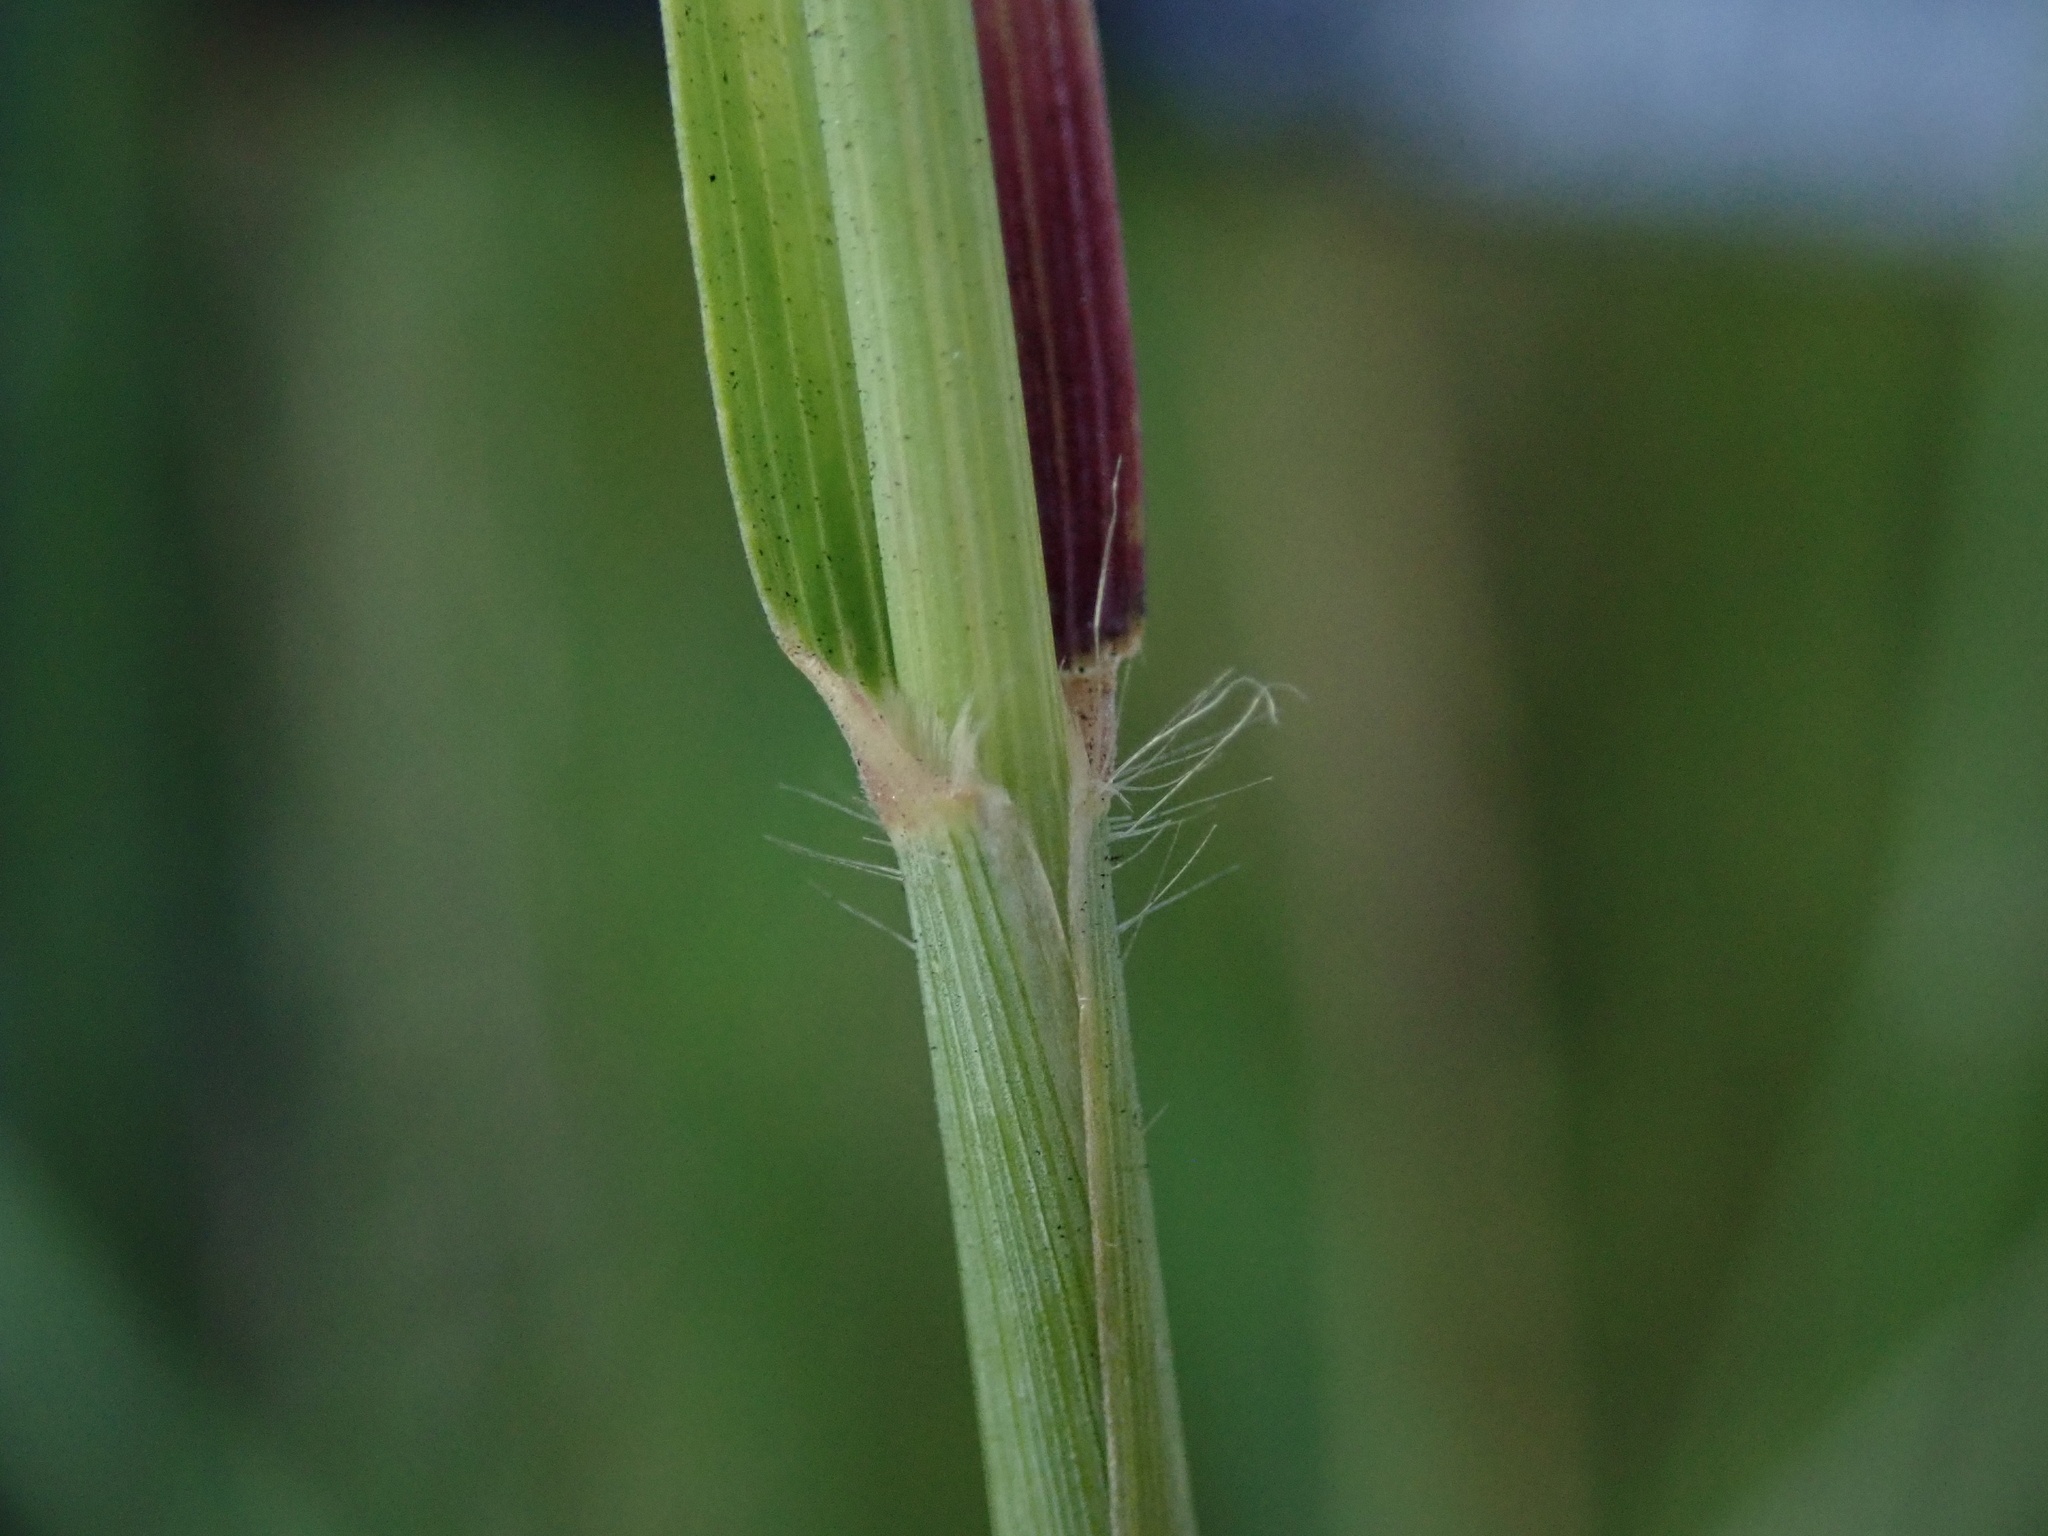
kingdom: Plantae
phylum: Tracheophyta
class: Liliopsida
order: Poales
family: Poaceae
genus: Melinis
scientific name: Melinis repens
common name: Rose natal grass
